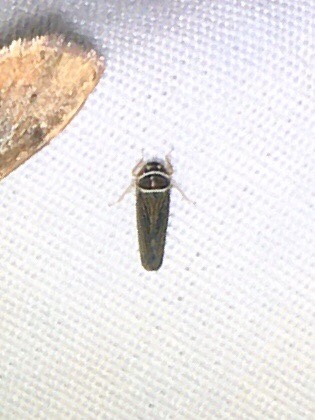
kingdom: Animalia
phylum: Arthropoda
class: Insecta
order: Hemiptera
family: Cicadellidae
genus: Tylozygus
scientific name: Tylozygus bifidus
